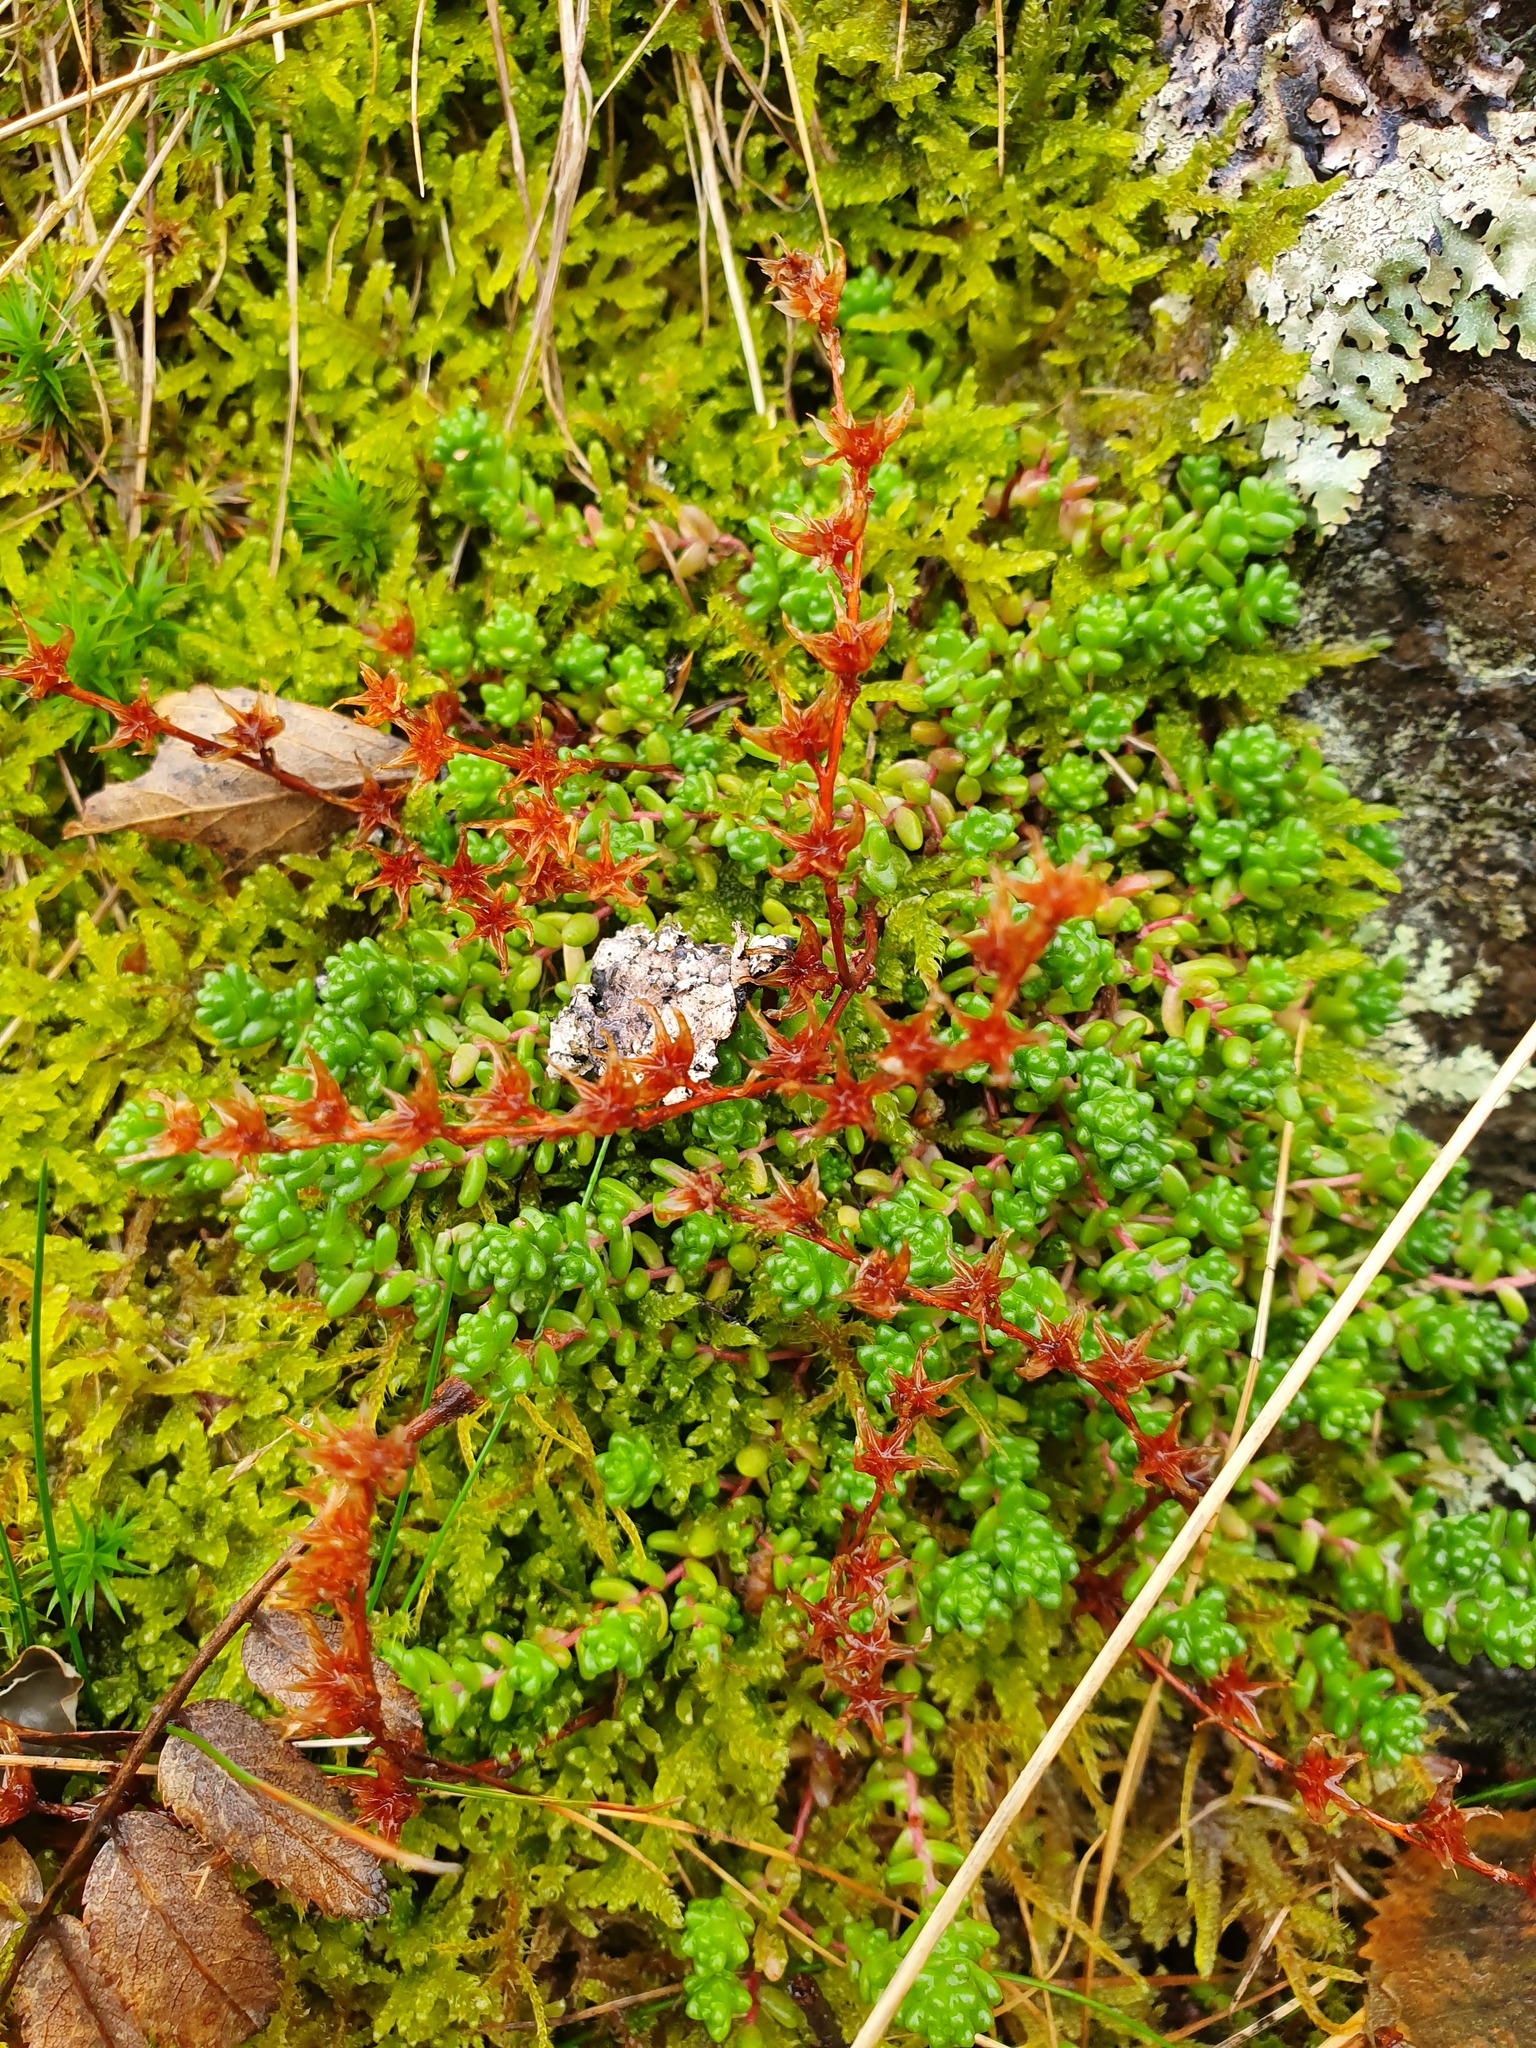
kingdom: Plantae
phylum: Tracheophyta
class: Magnoliopsida
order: Saxifragales
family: Crassulaceae
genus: Sedum
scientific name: Sedum anglicum
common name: English stonecrop
